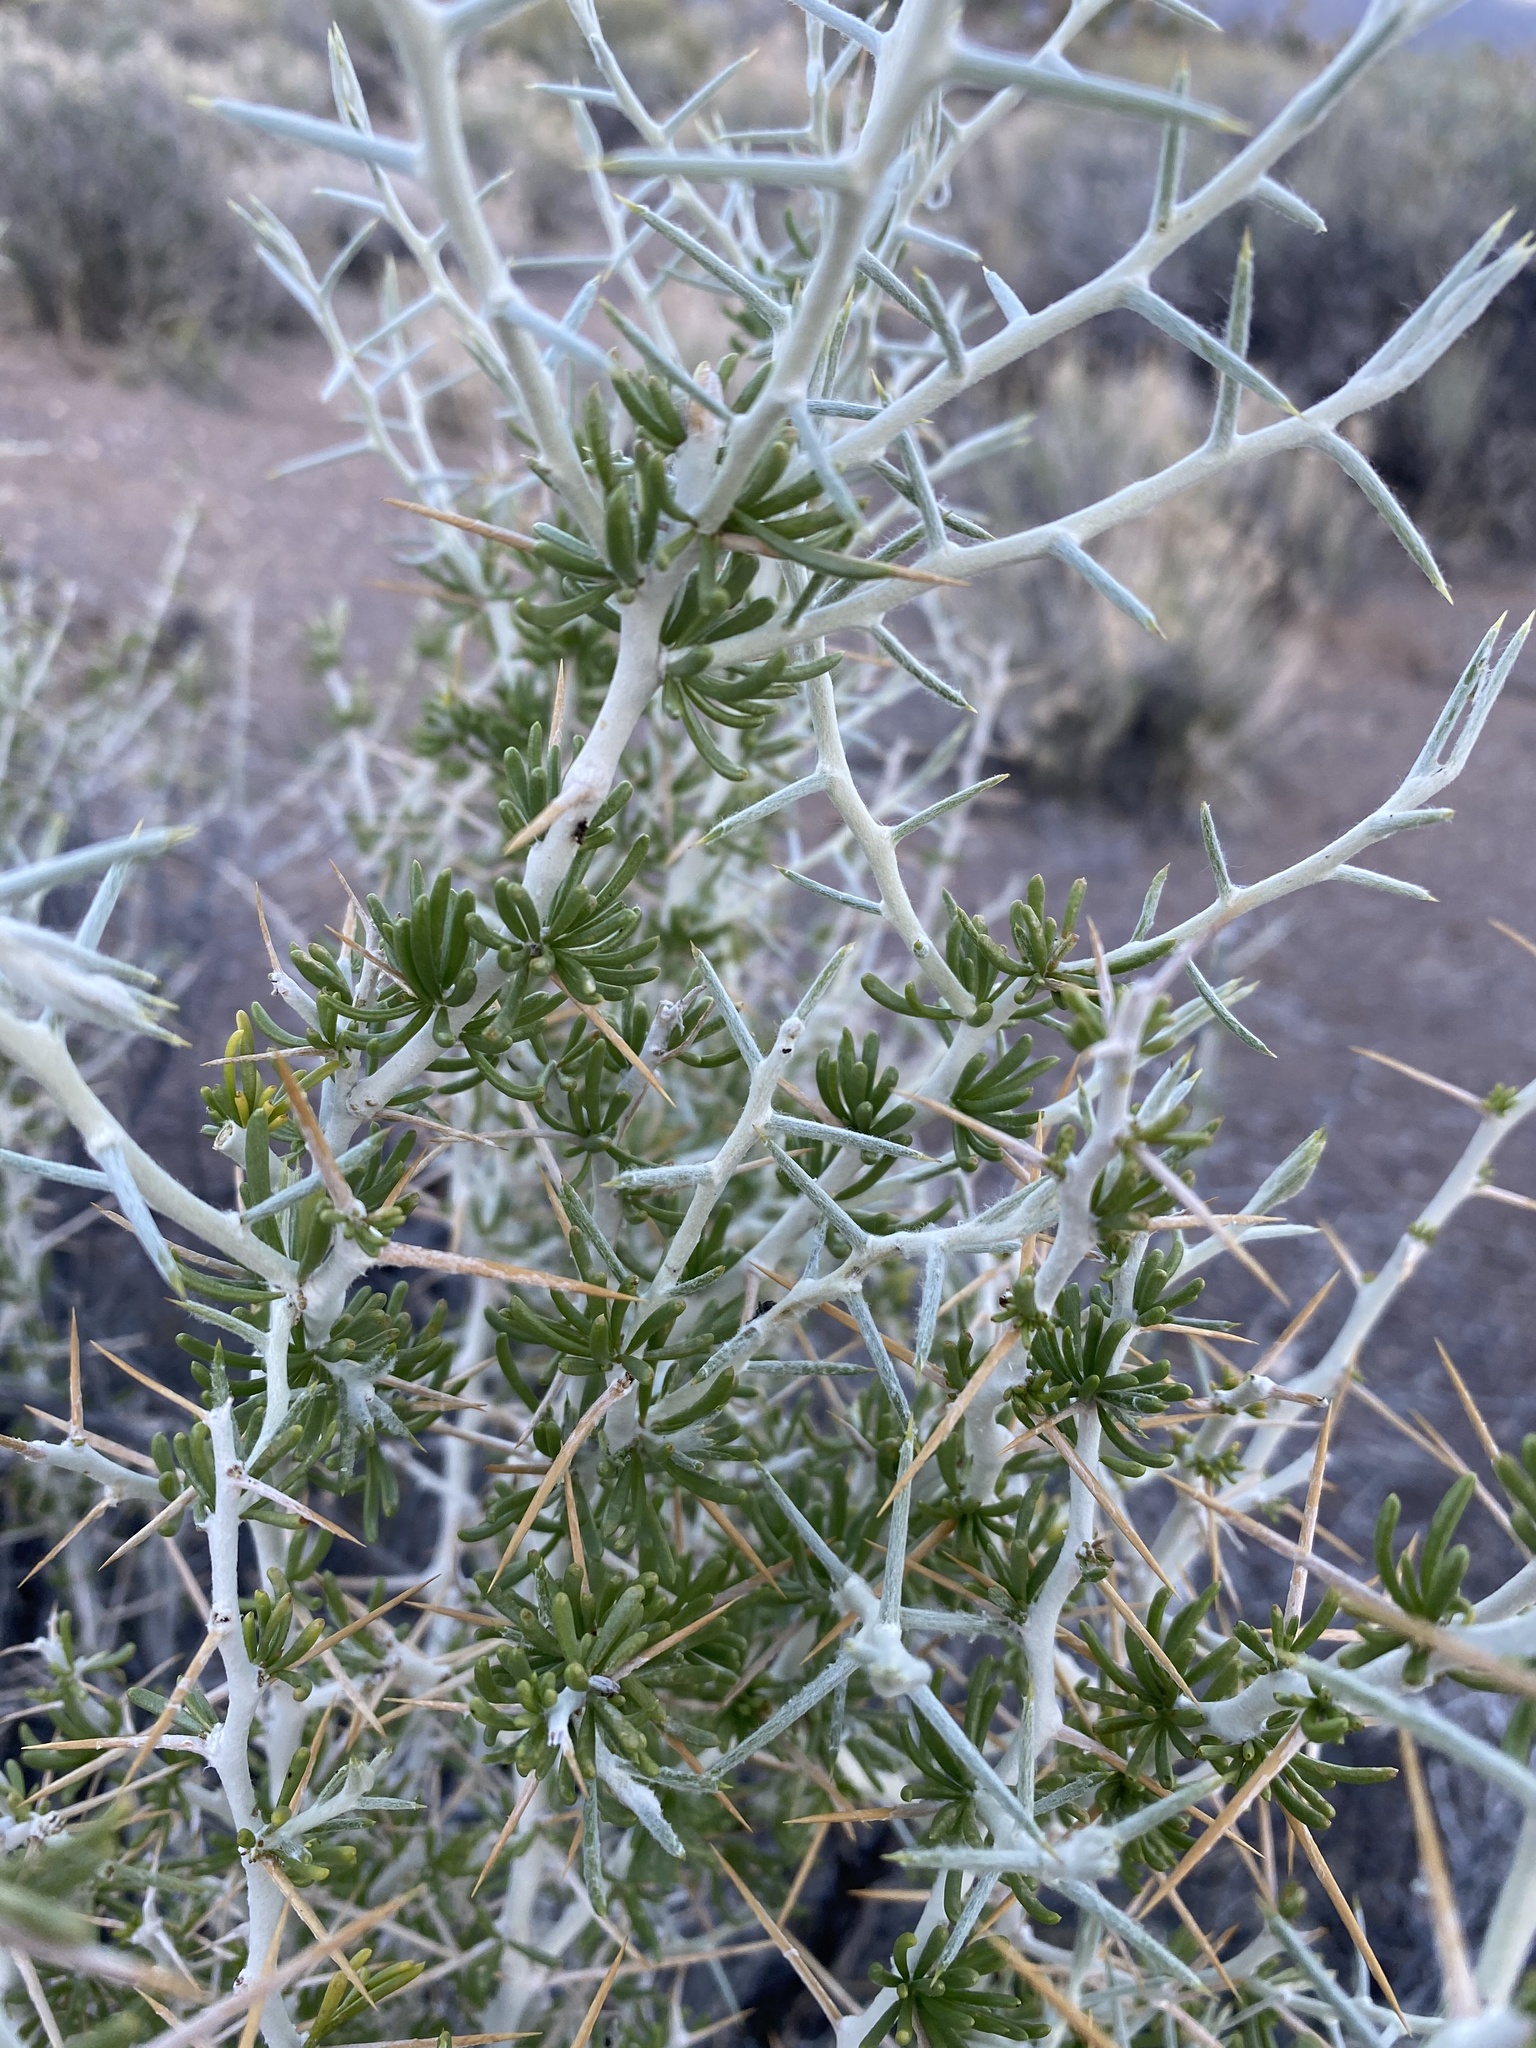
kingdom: Plantae
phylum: Tracheophyta
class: Magnoliopsida
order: Asterales
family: Asteraceae
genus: Tetradymia
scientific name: Tetradymia axillaris
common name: Long-spine horsebrush
